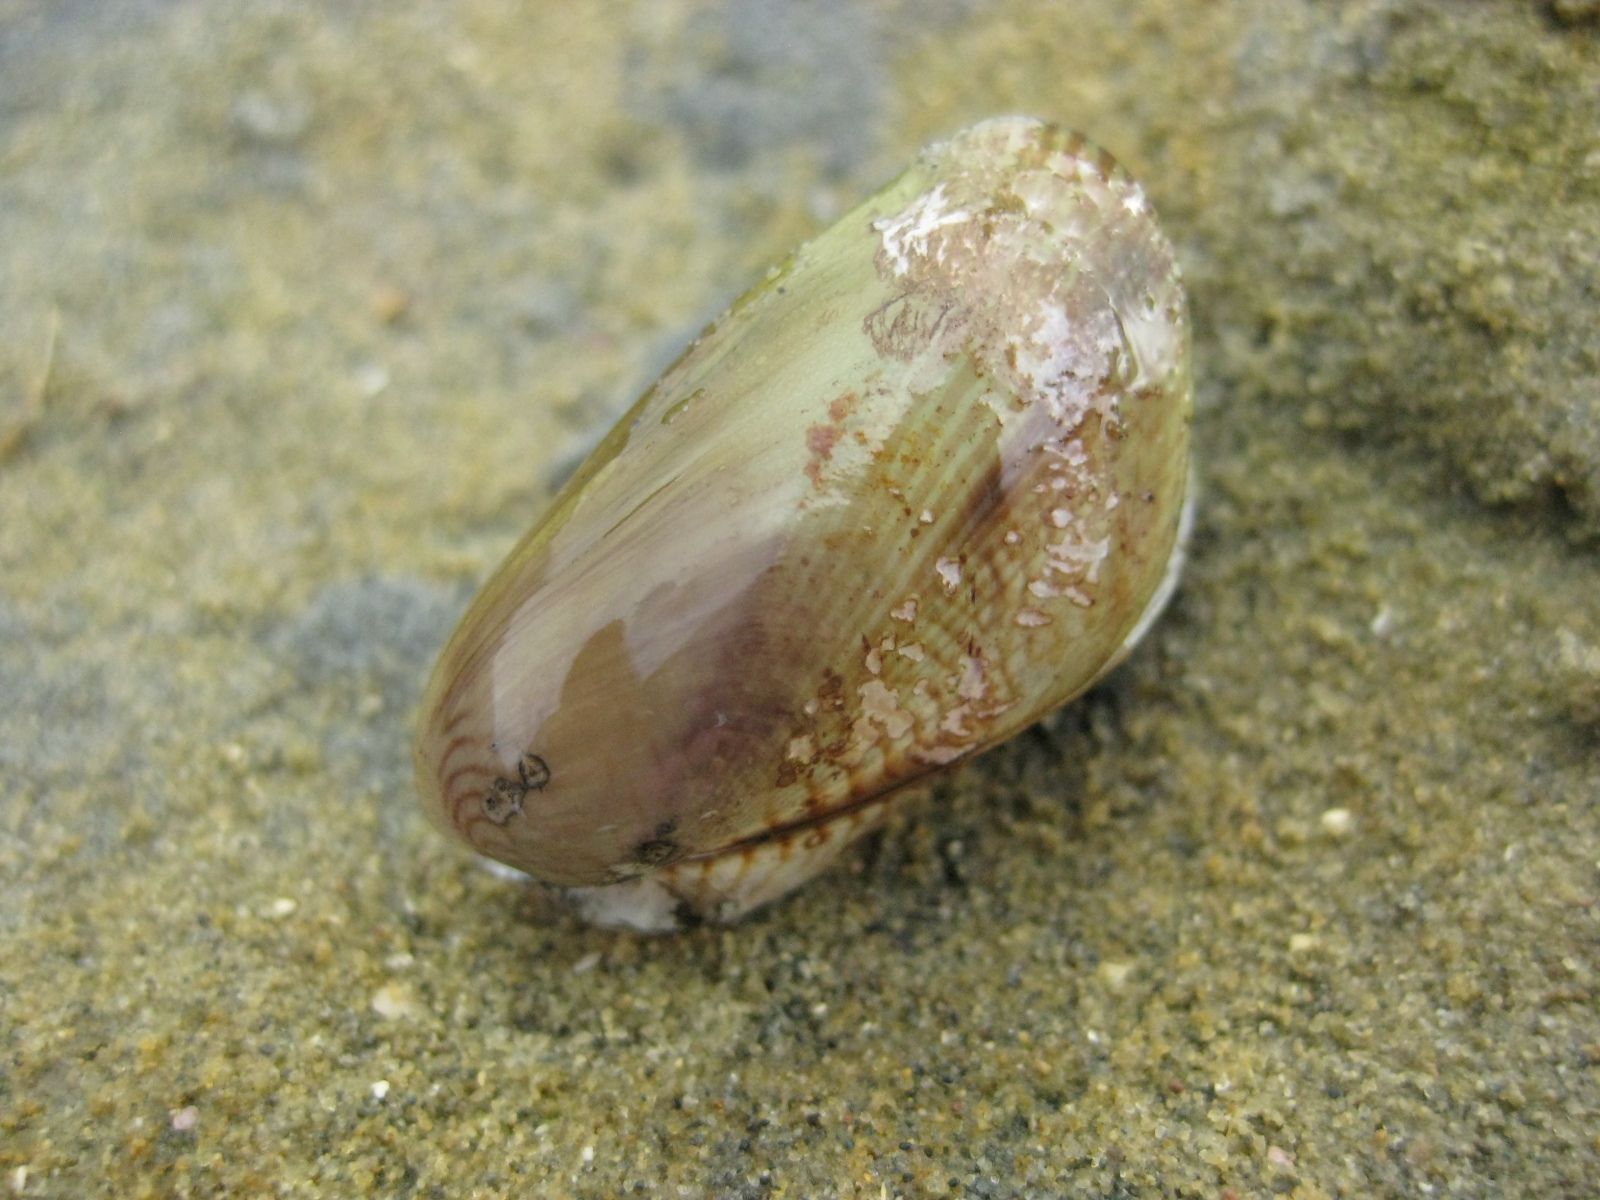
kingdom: Animalia
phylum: Mollusca
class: Bivalvia
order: Mytilida
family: Mytilidae
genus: Arcuatula
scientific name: Arcuatula senhousia
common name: Asian mussel
